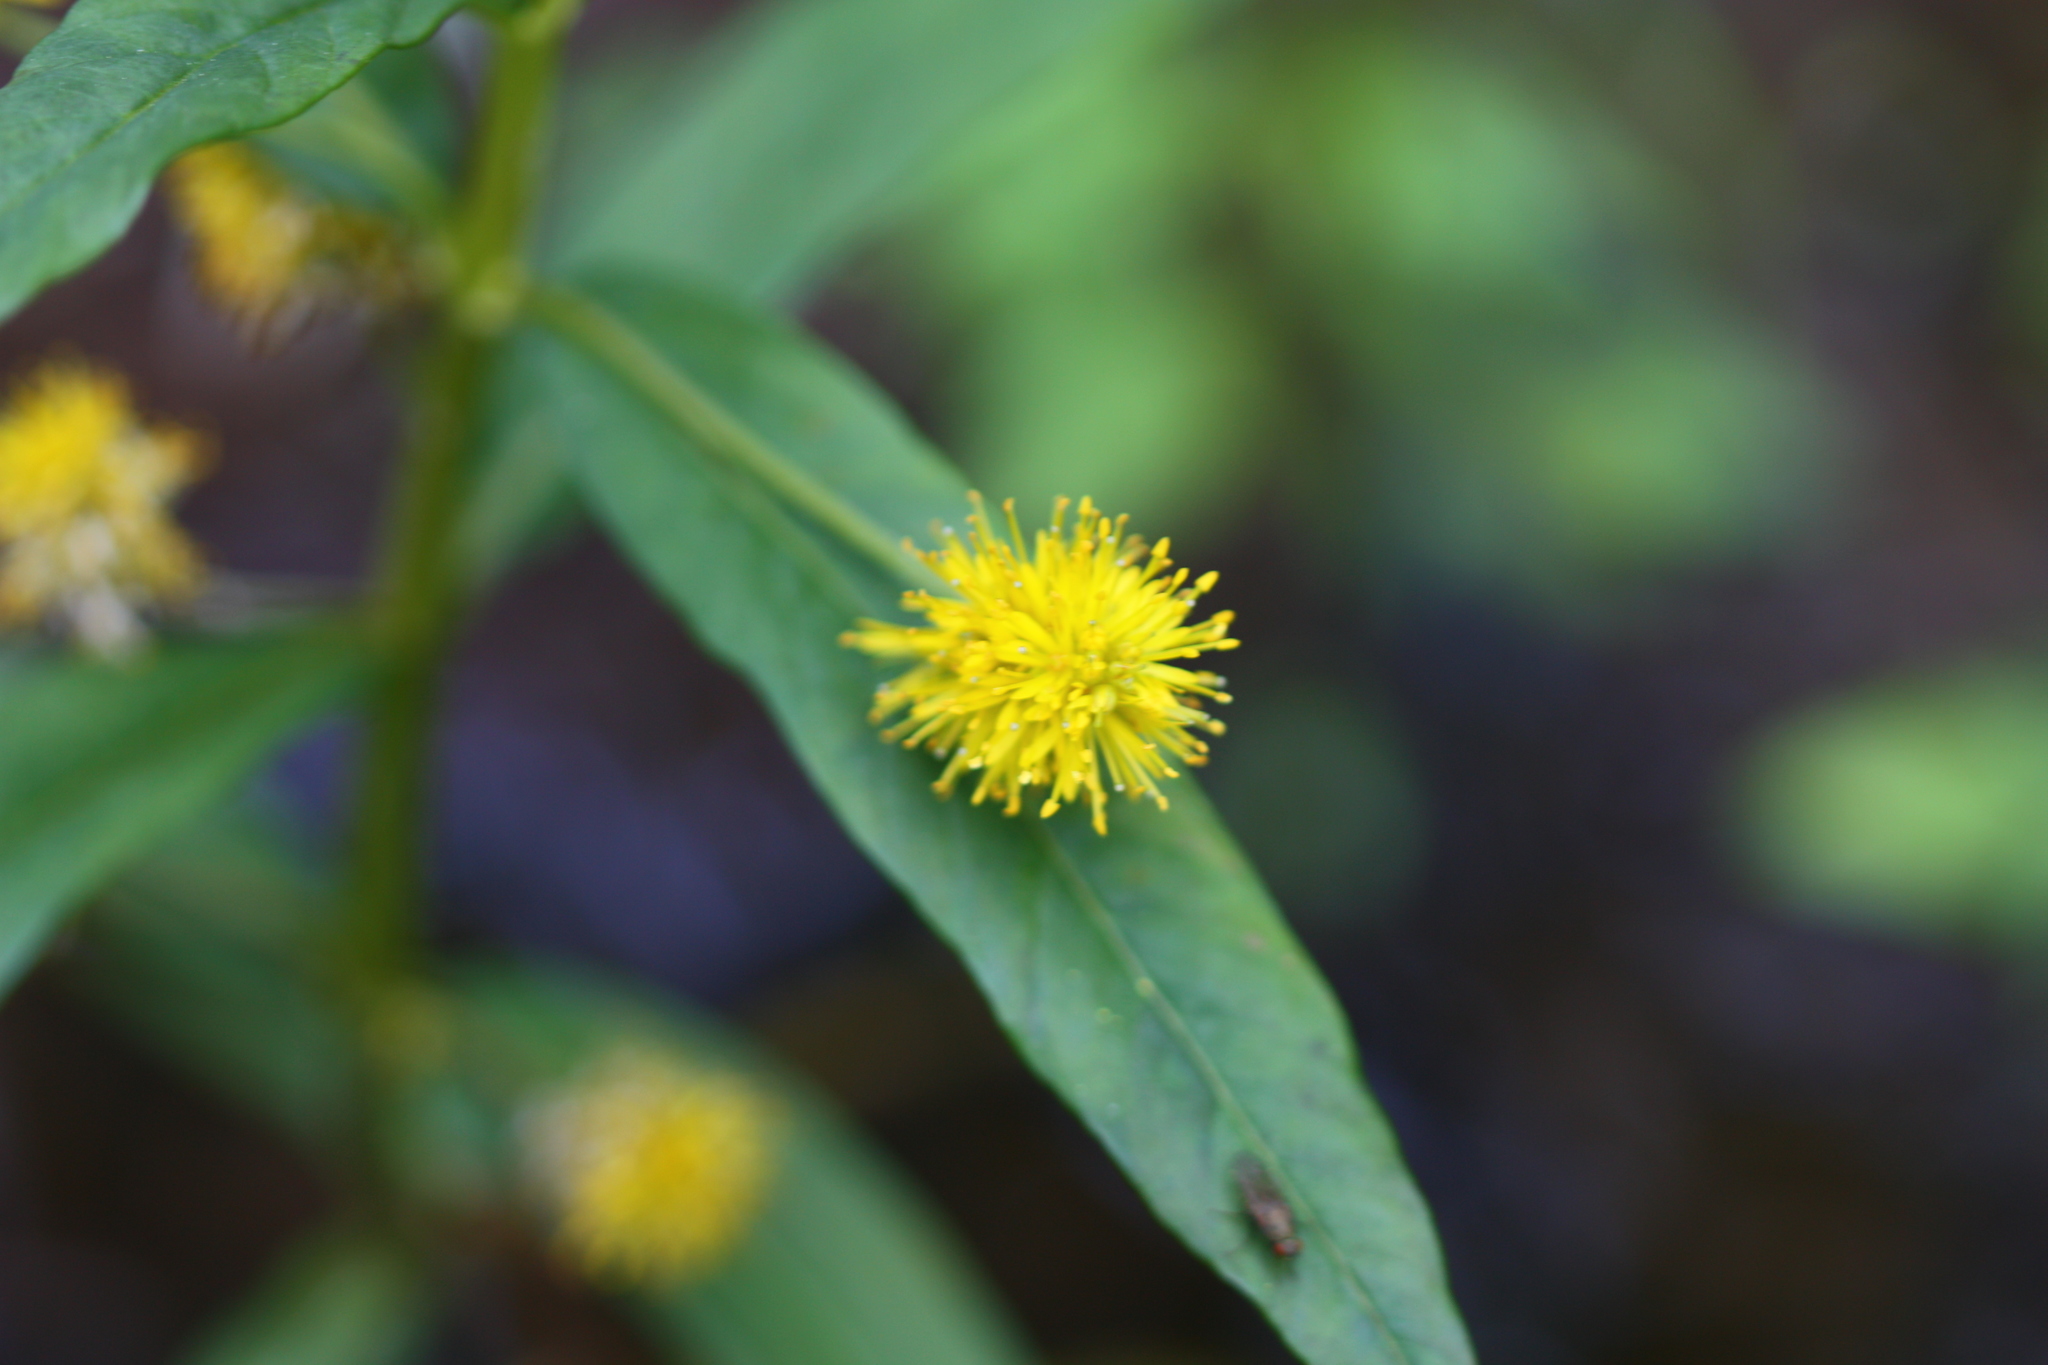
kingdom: Plantae
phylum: Tracheophyta
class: Magnoliopsida
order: Ericales
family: Primulaceae
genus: Lysimachia
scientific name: Lysimachia thyrsiflora
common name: Tufted loosestrife
